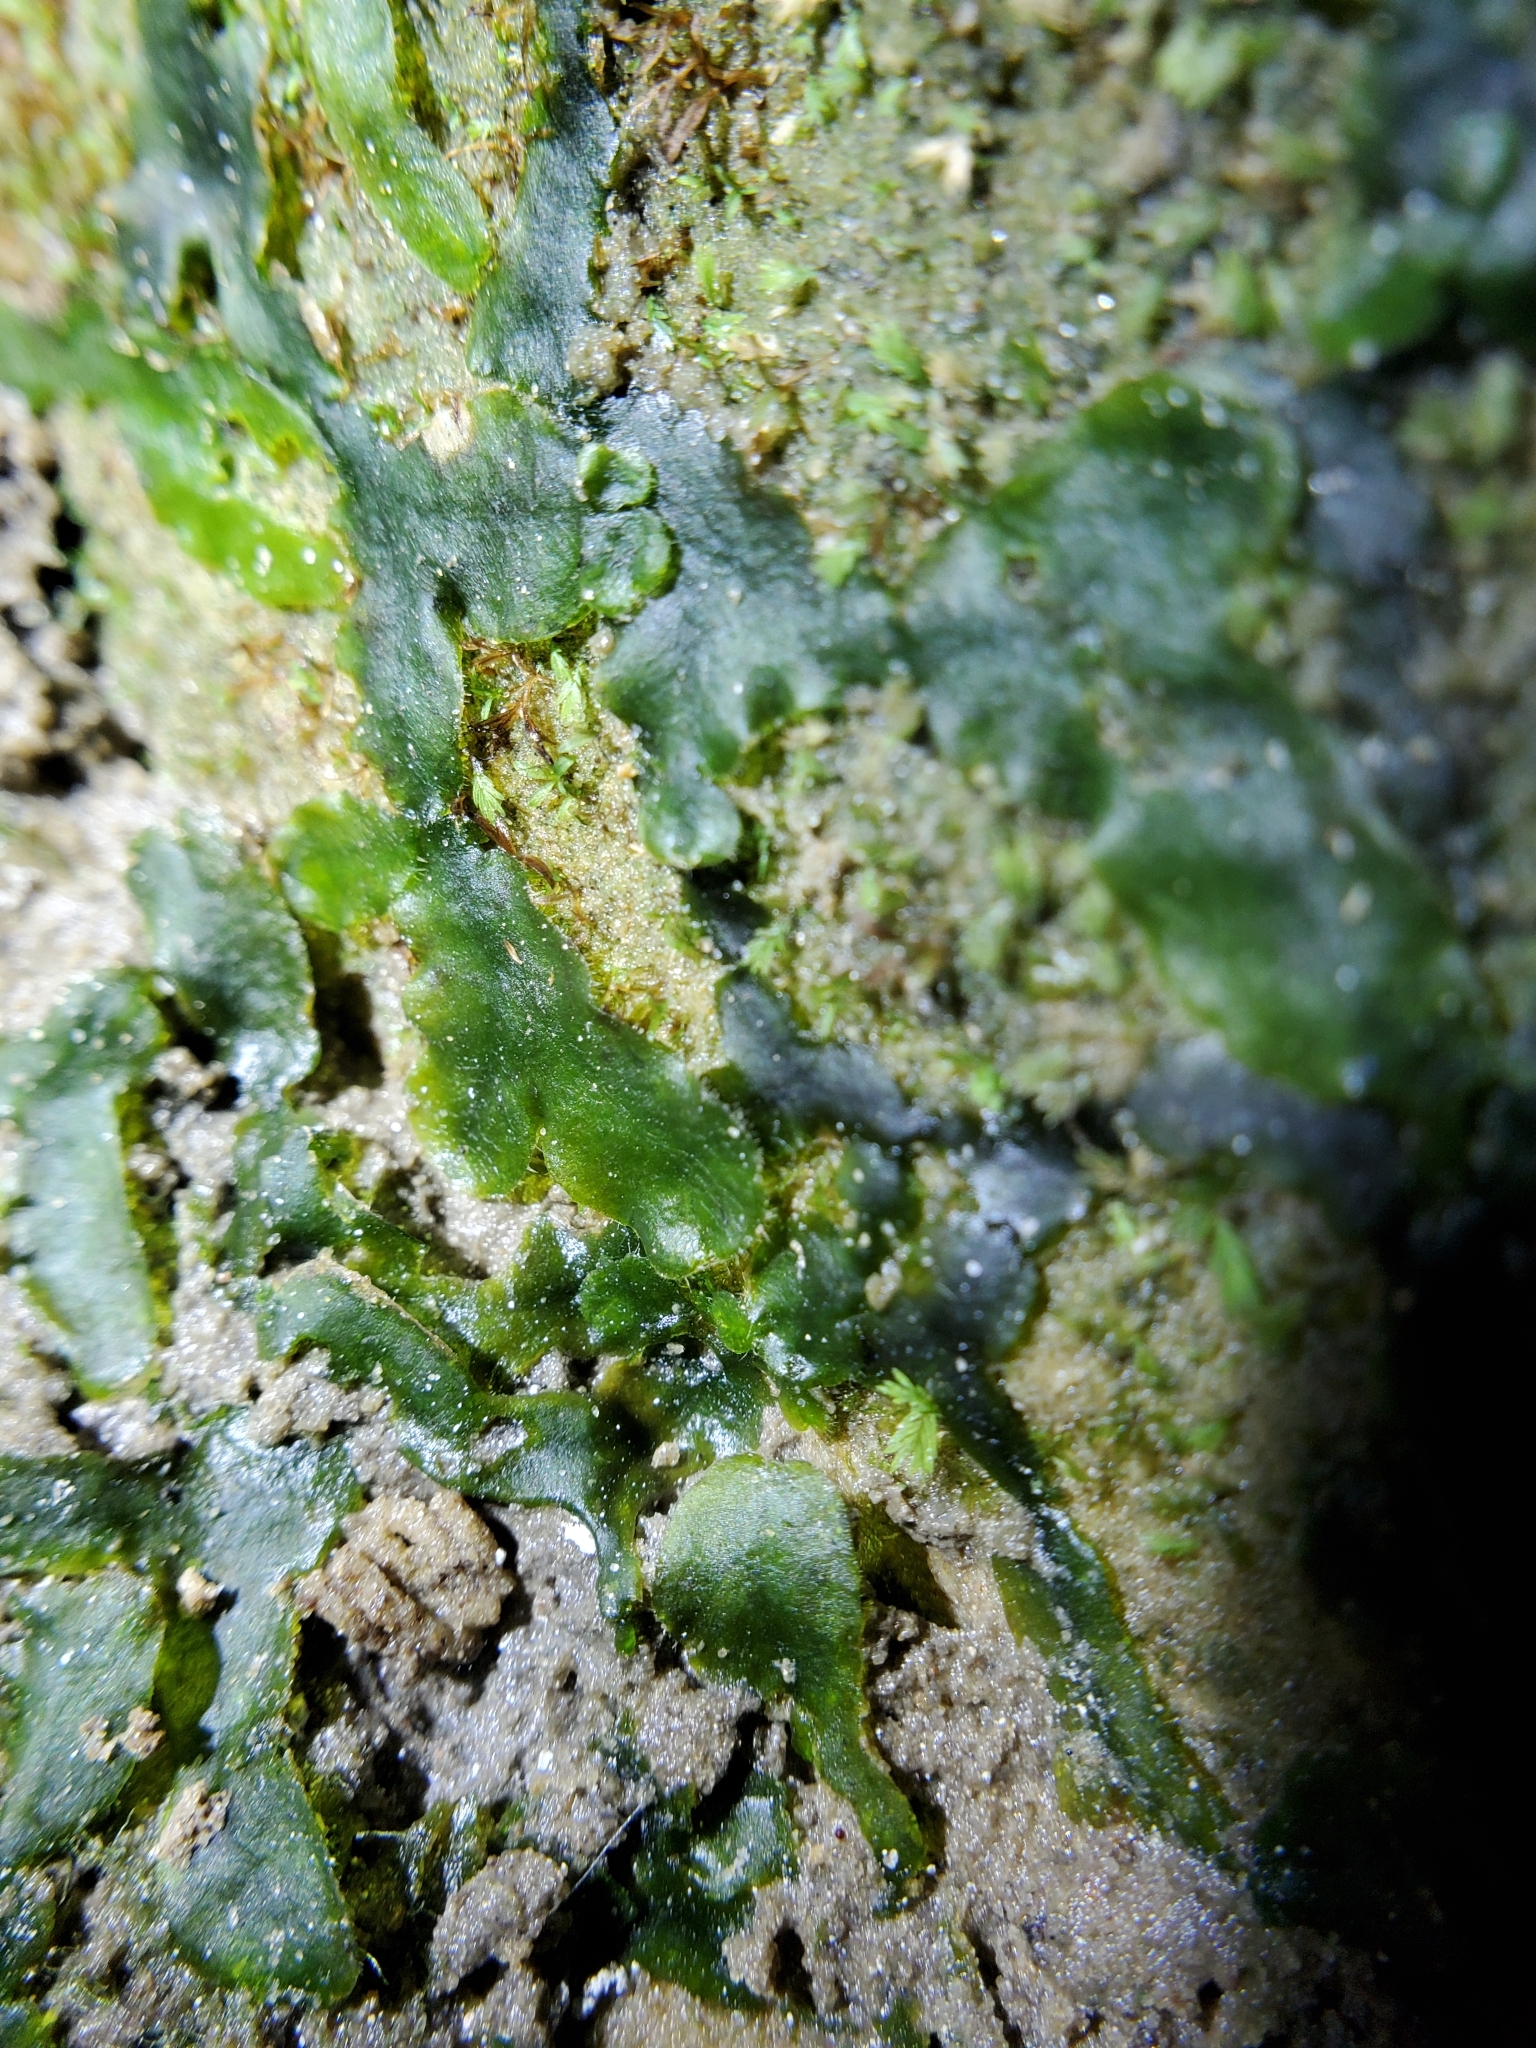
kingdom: Plantae
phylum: Marchantiophyta
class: Marchantiopsida
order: Marchantiales
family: Dumortieraceae
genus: Dumortiera
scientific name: Dumortiera hirsuta
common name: Dumortier's liverwort
